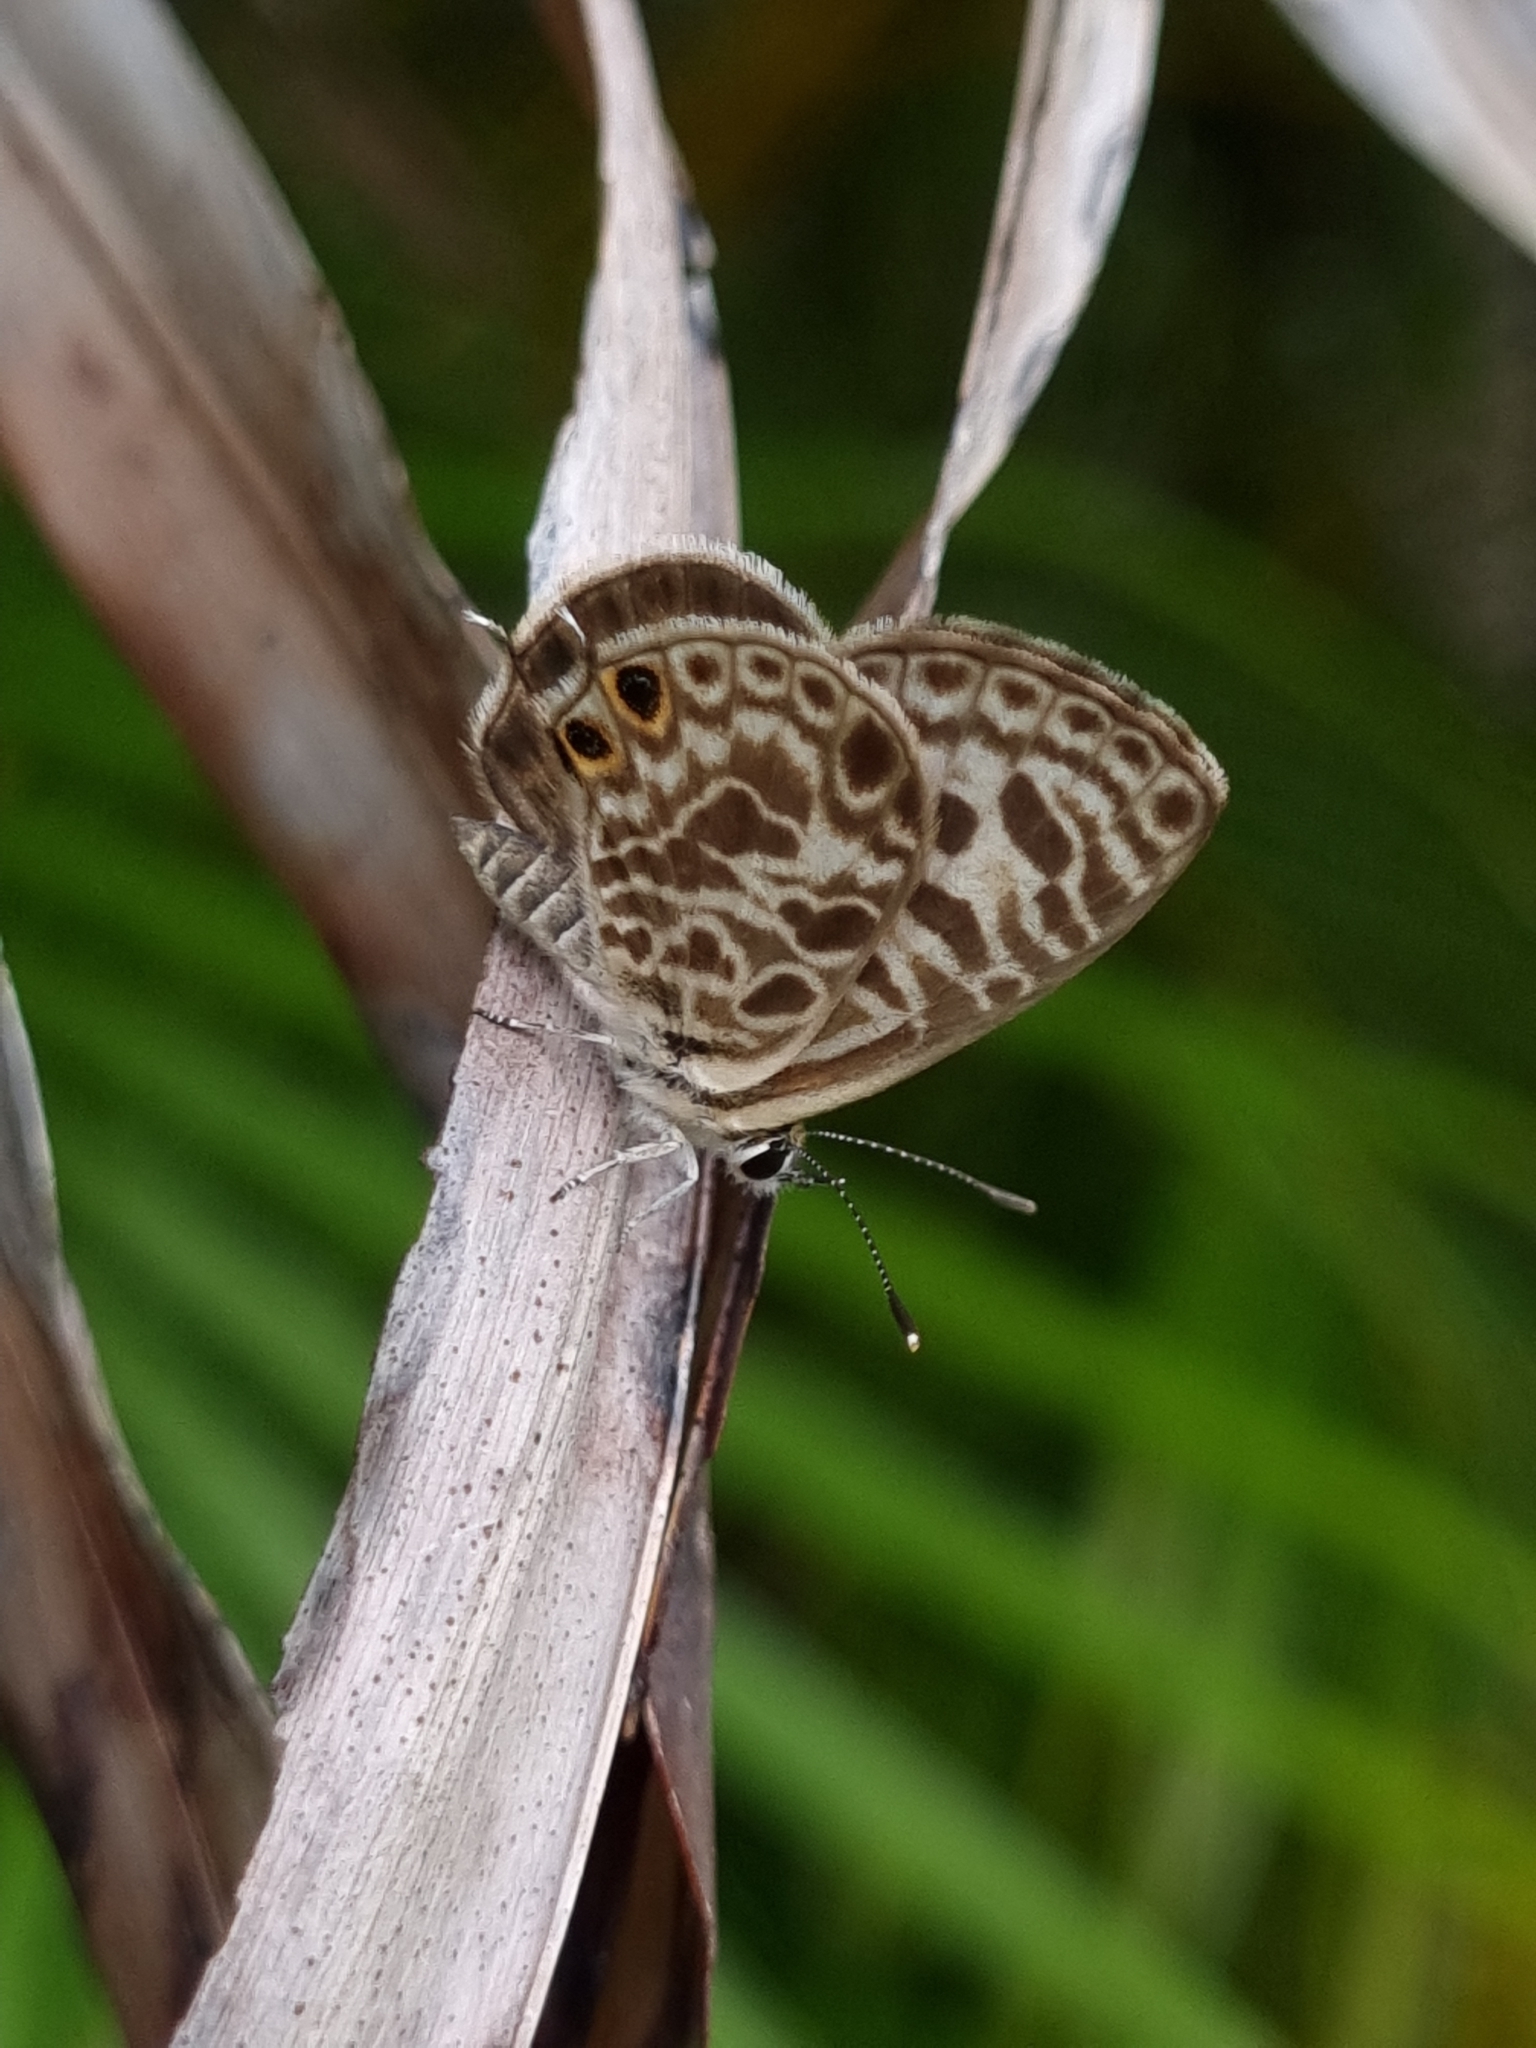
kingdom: Animalia
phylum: Arthropoda
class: Insecta
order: Lepidoptera
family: Lycaenidae
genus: Leptotes
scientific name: Leptotes plinius
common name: Zebra blue
